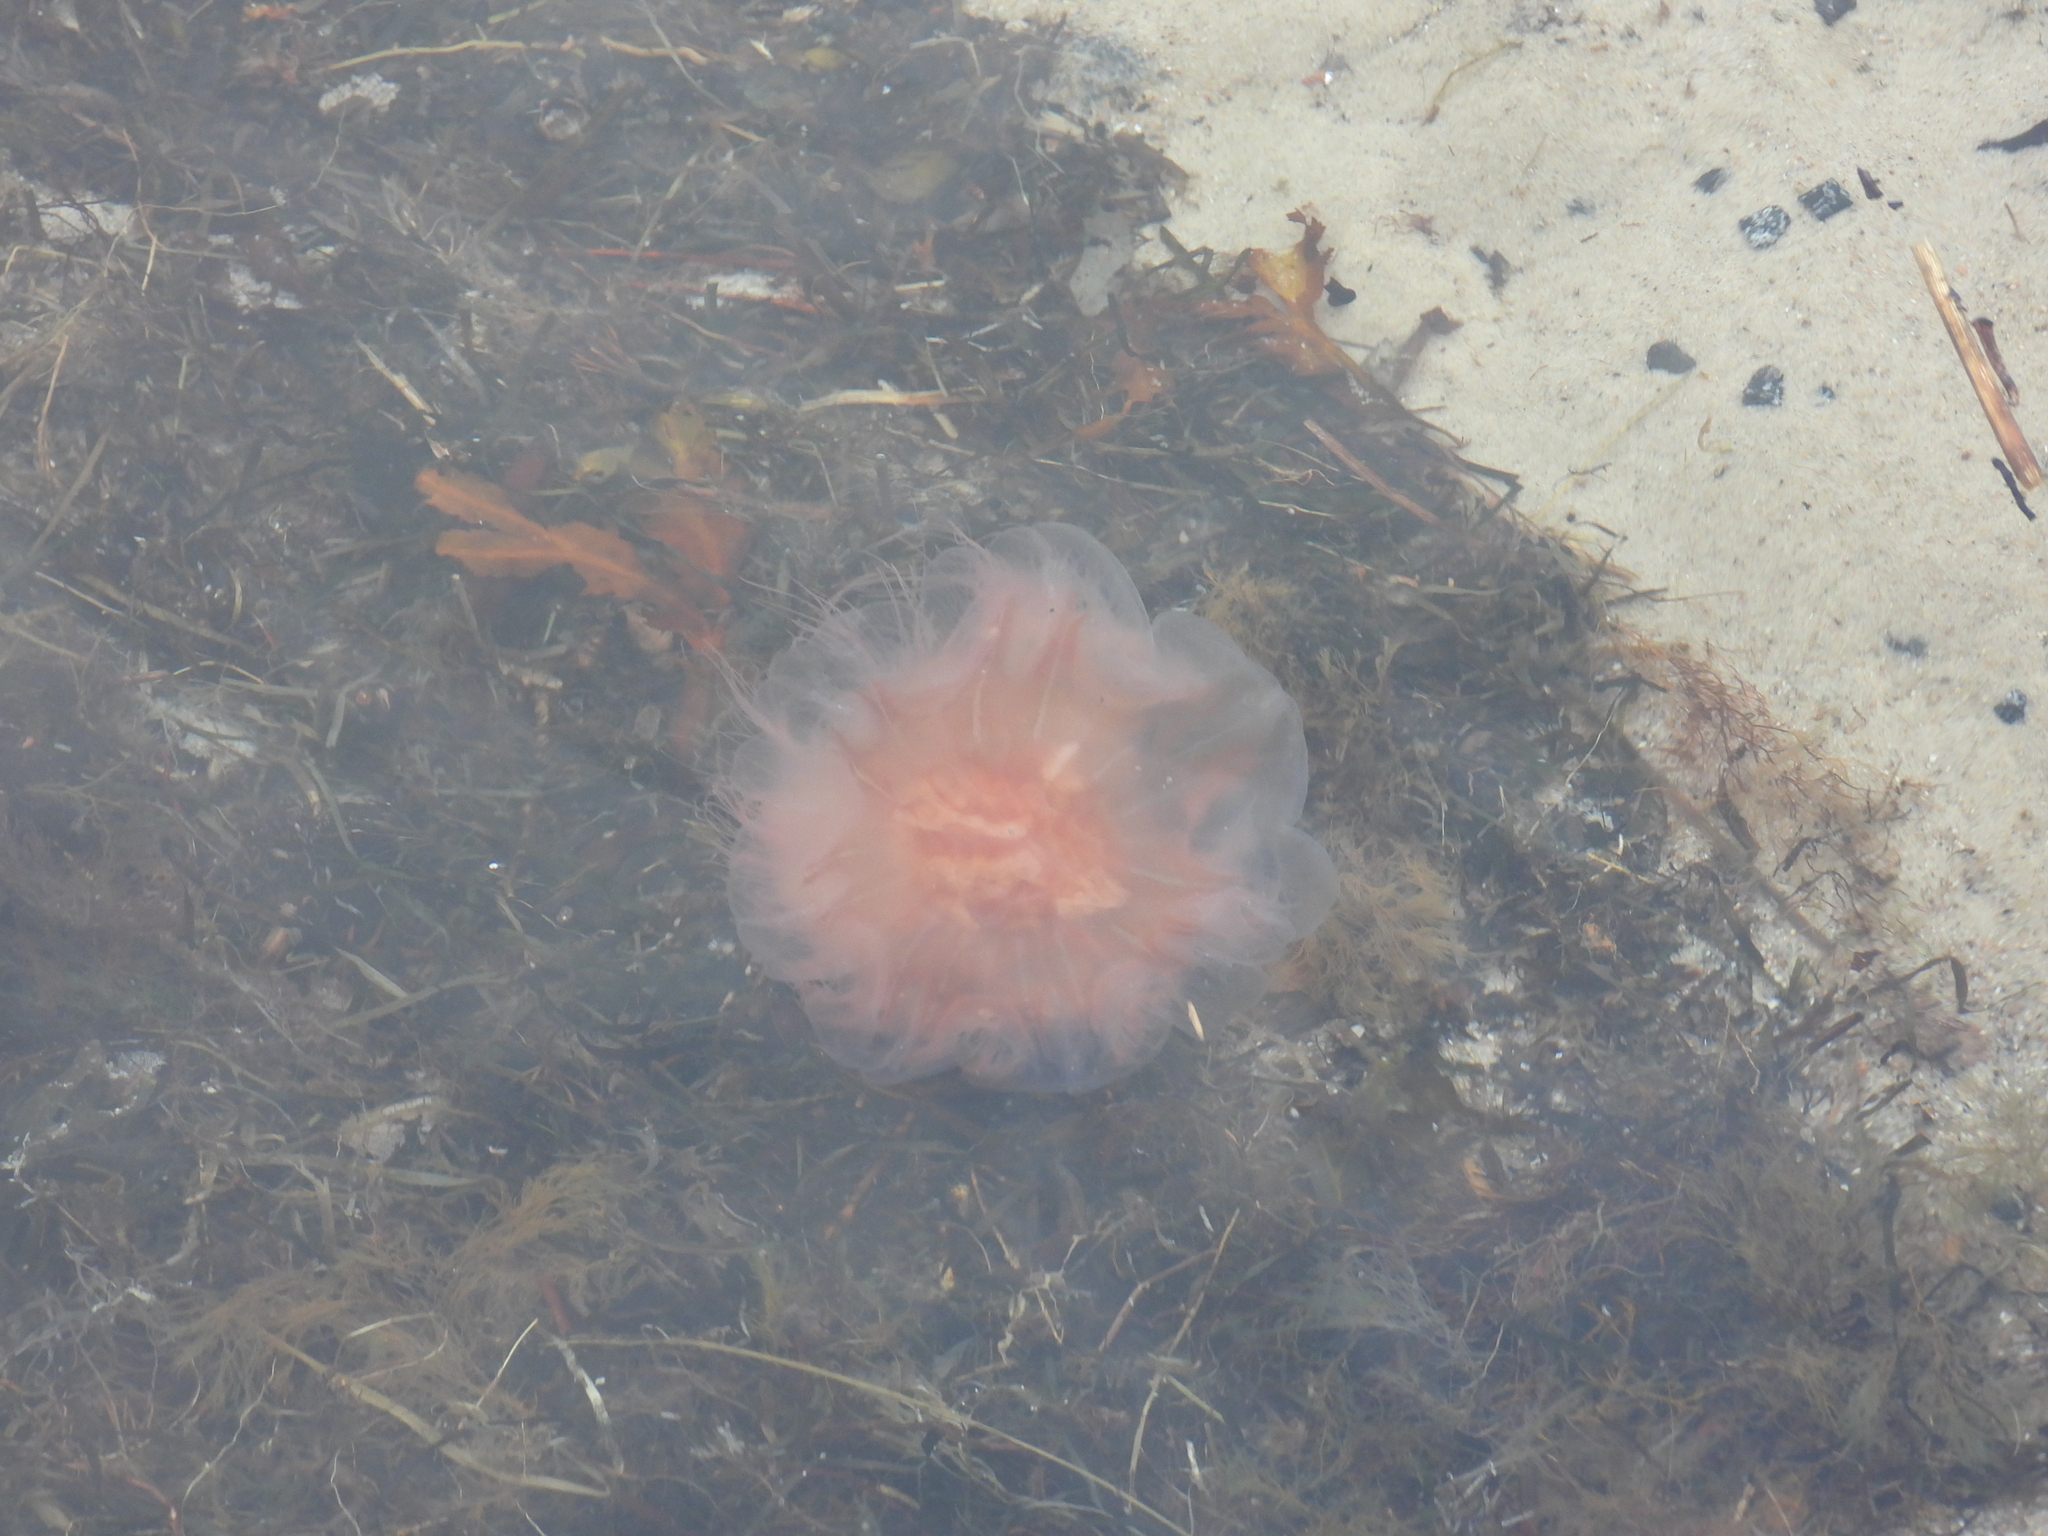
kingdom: Animalia
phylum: Cnidaria
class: Scyphozoa
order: Semaeostomeae
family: Cyaneidae
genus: Cyanea
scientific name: Cyanea capillata
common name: Lion's mane jellyfish
